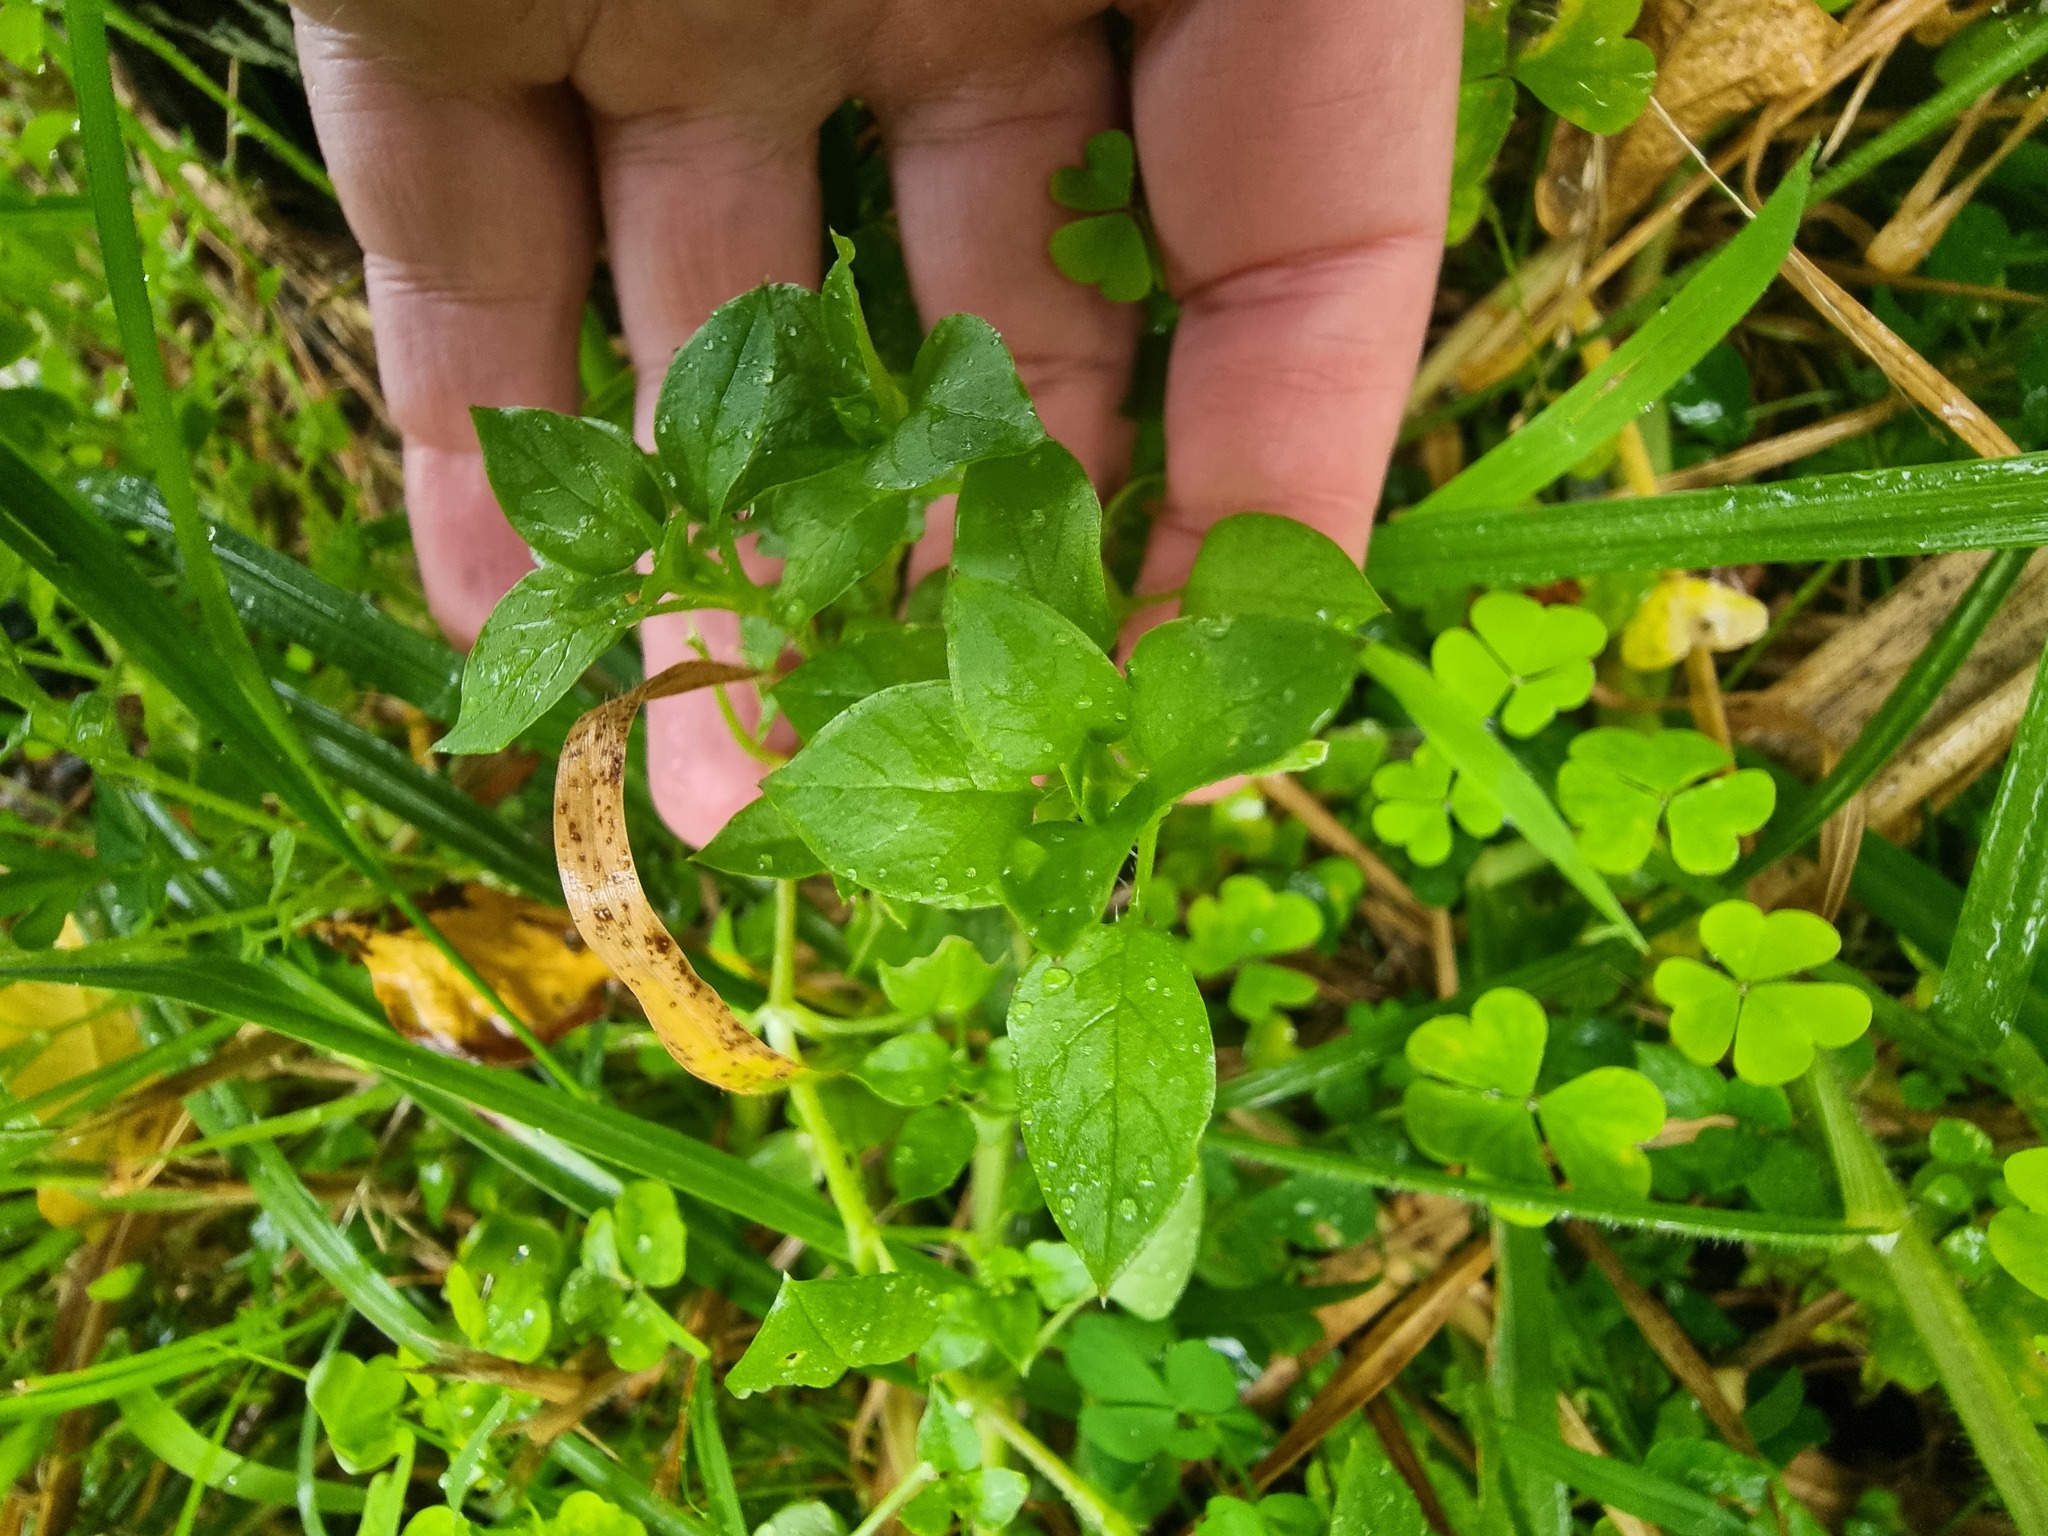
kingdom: Plantae
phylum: Tracheophyta
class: Magnoliopsida
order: Caryophyllales
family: Caryophyllaceae
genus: Stellaria
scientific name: Stellaria media
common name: Common chickweed
